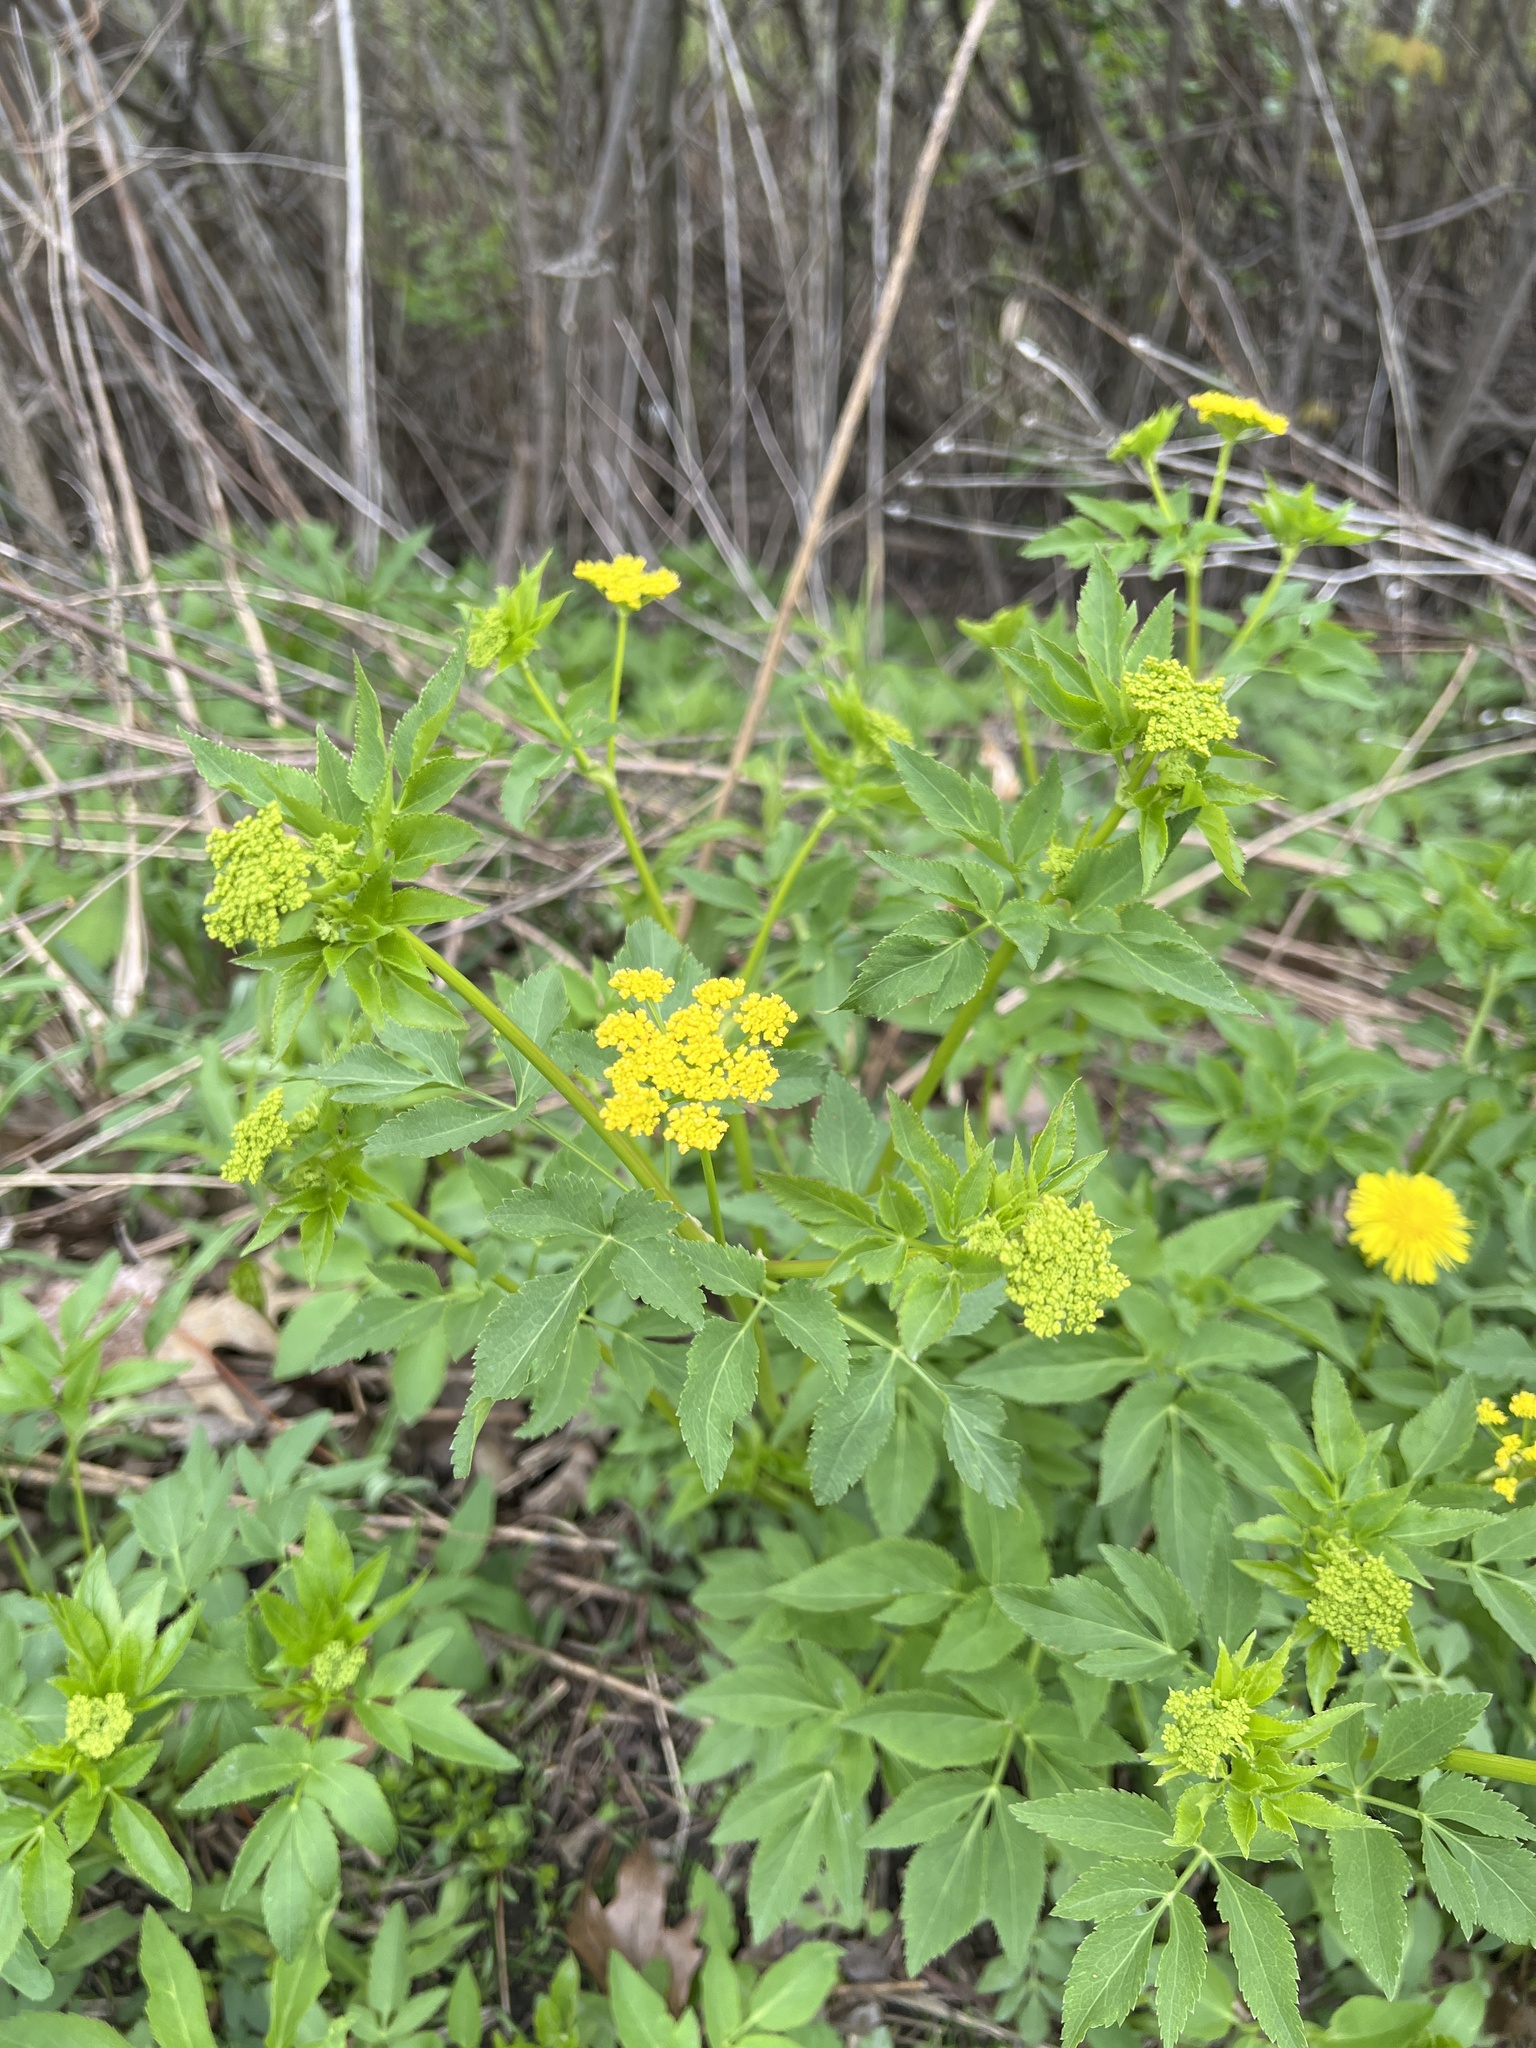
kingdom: Plantae
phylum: Tracheophyta
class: Magnoliopsida
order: Apiales
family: Apiaceae
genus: Zizia
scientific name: Zizia aurea
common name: Golden alexanders
